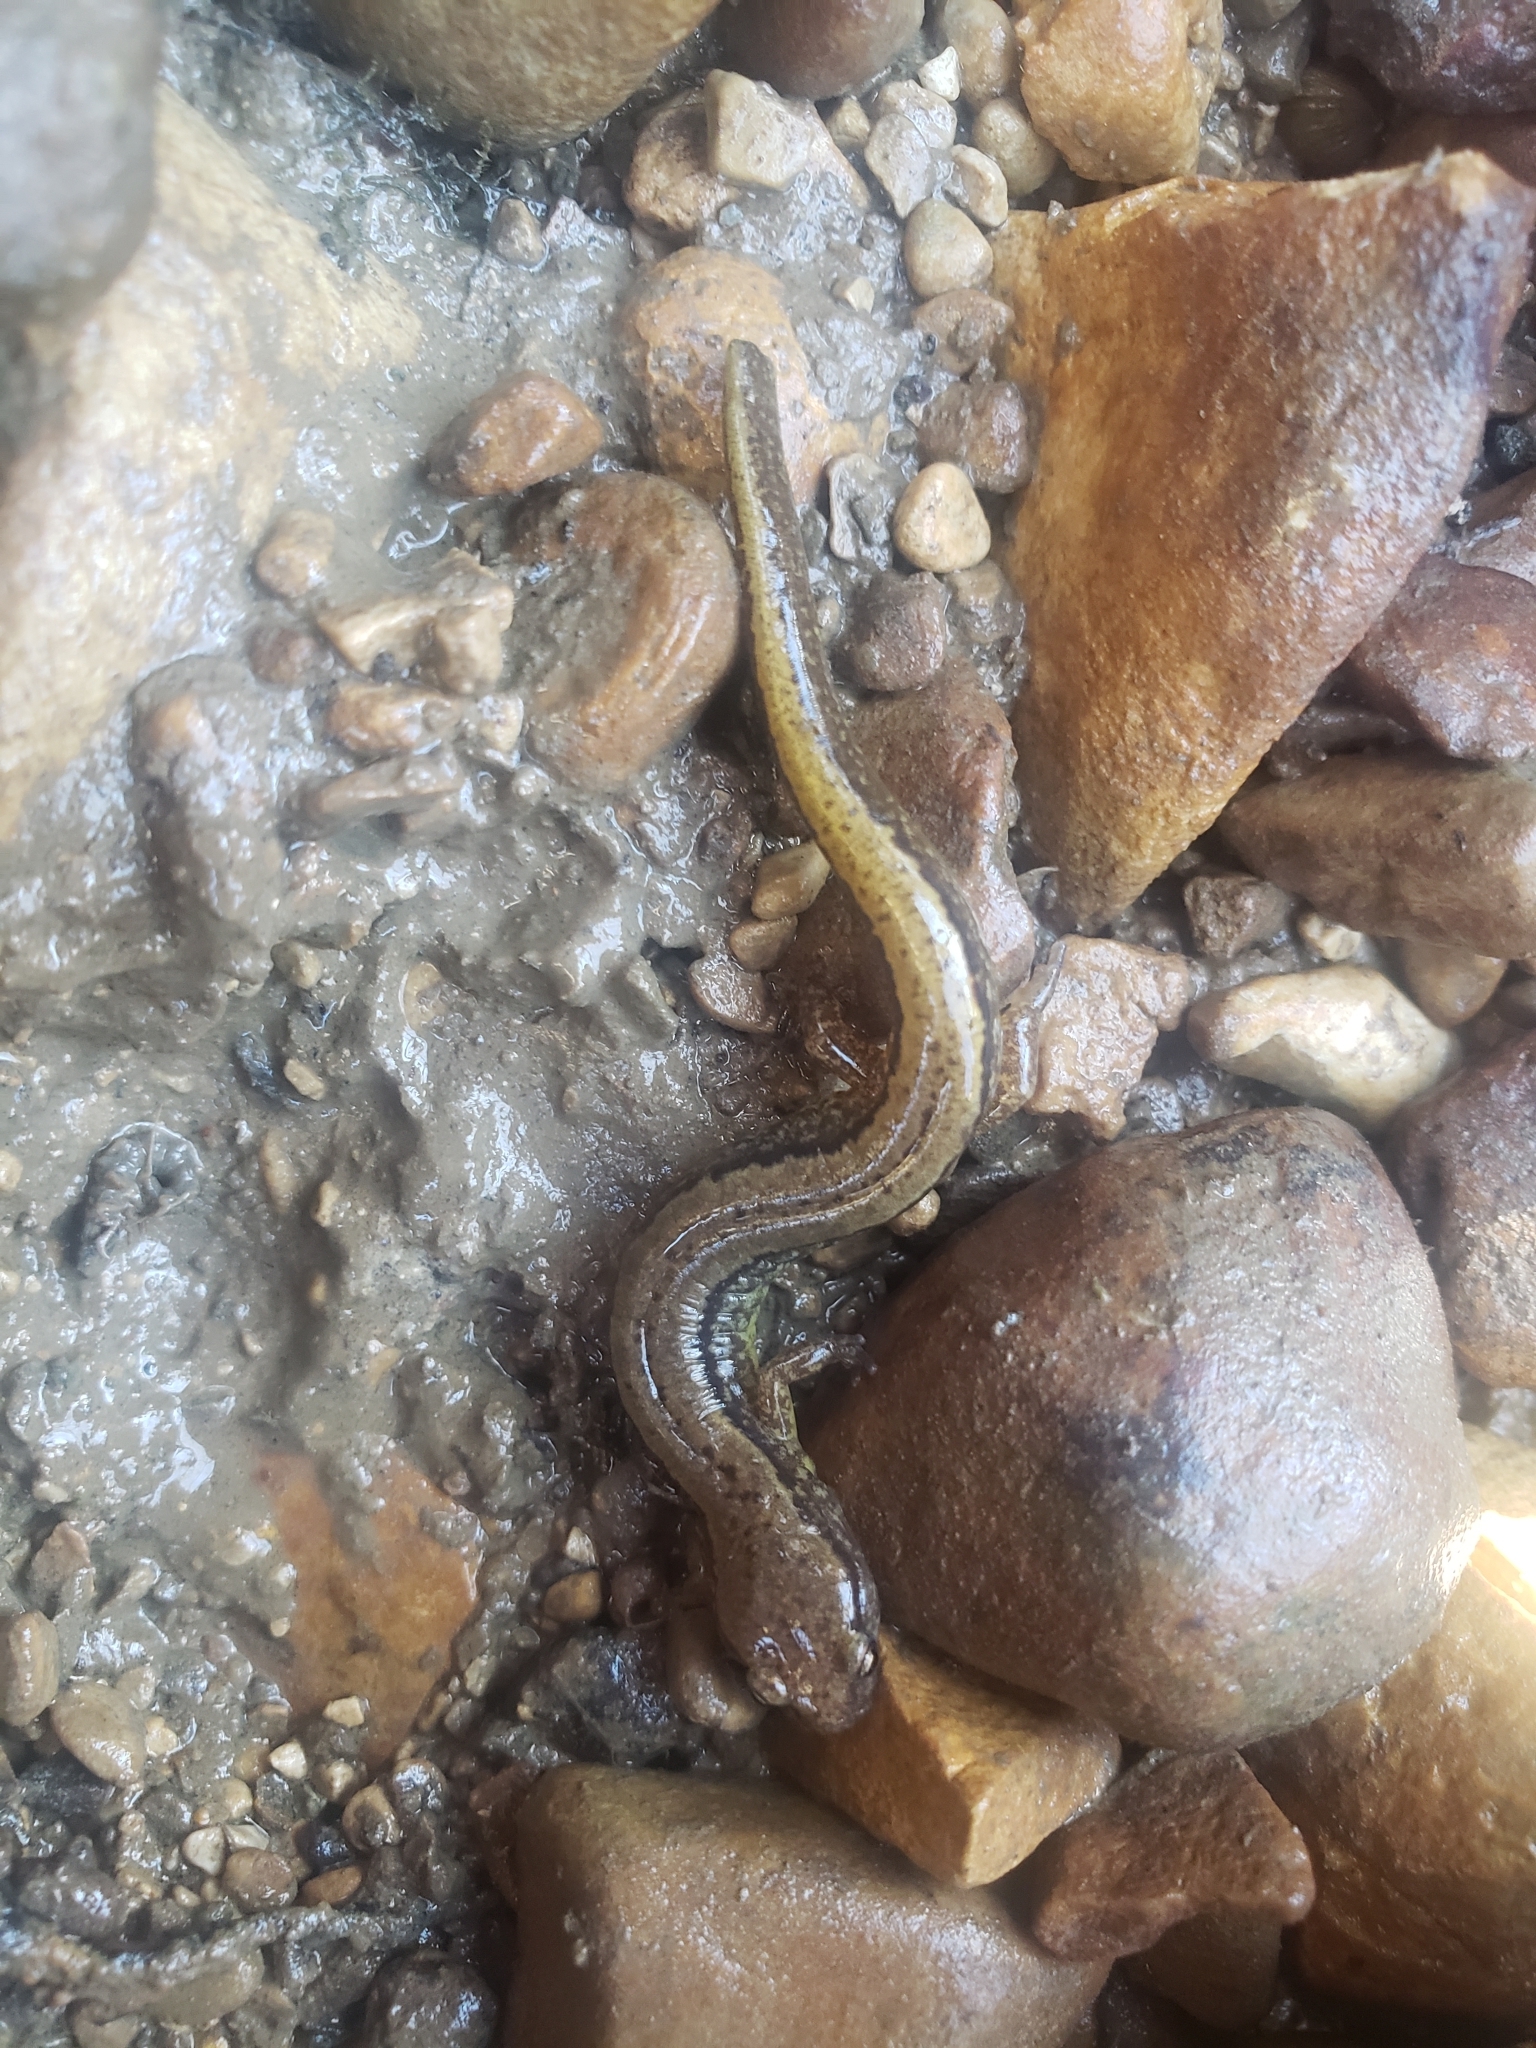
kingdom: Animalia
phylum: Chordata
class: Amphibia
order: Caudata
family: Plethodontidae
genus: Eurycea
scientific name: Eurycea cirrigera
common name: Southern two-lined salamander
